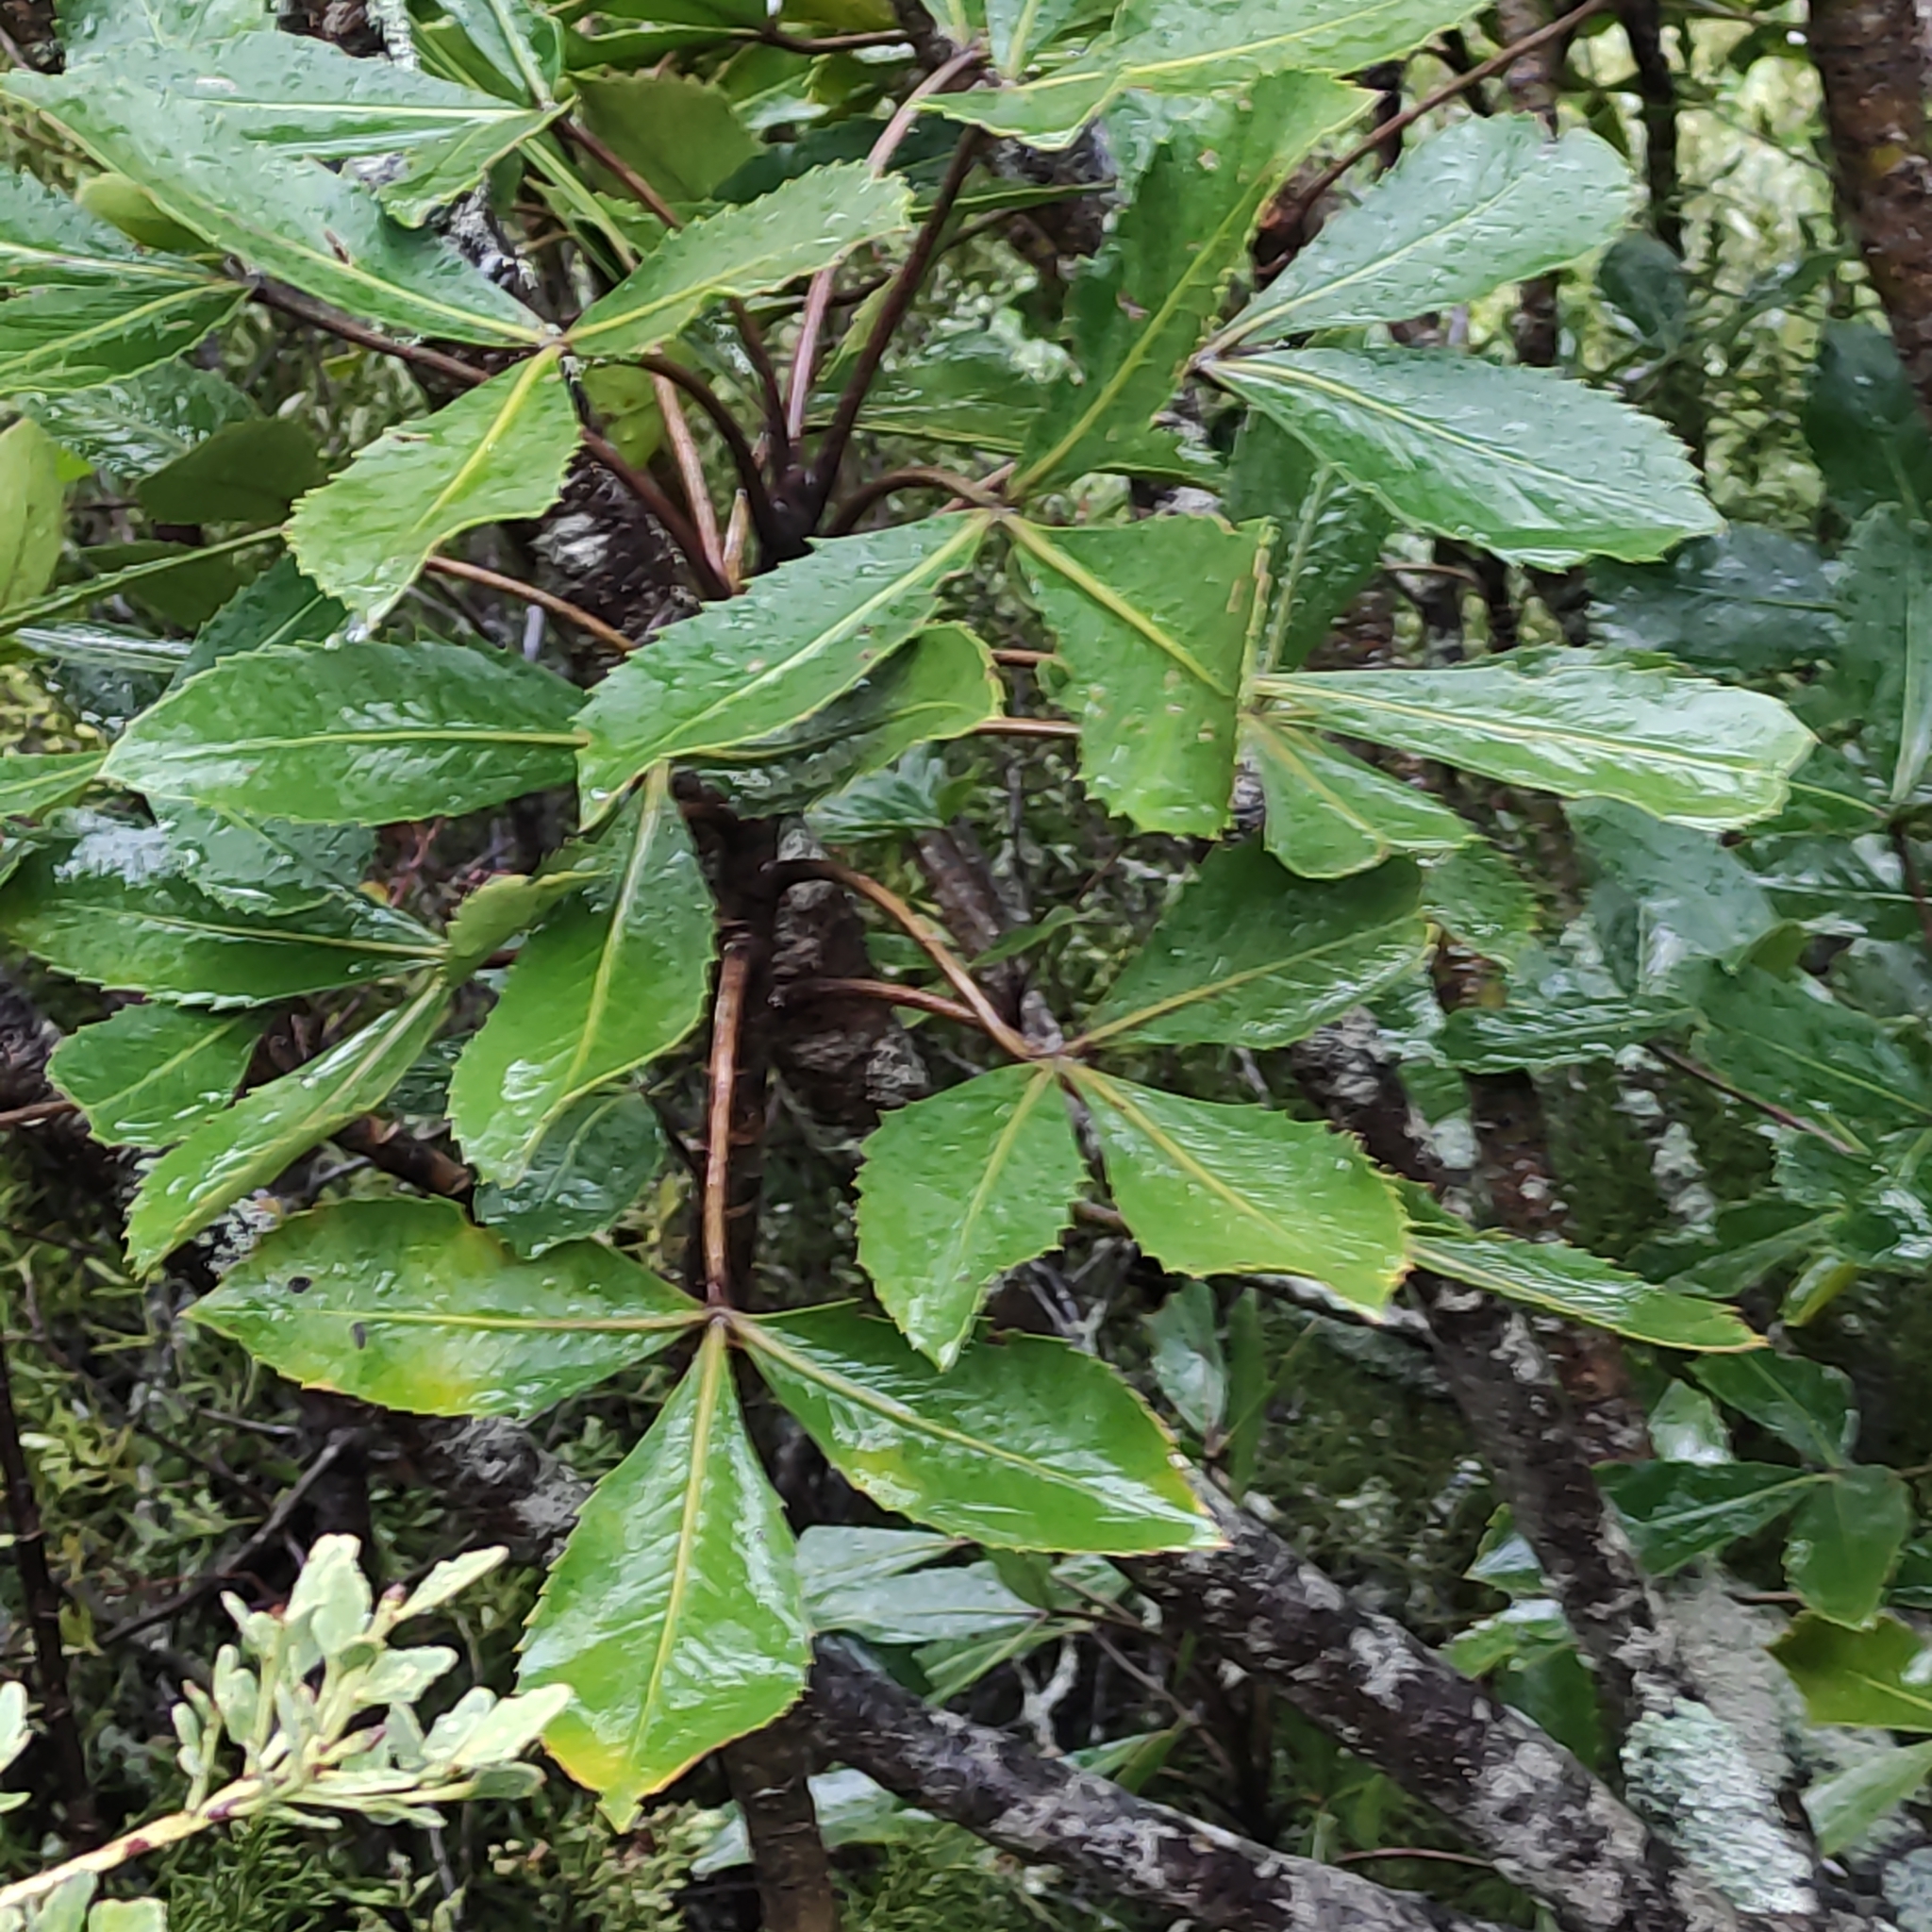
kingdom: Plantae
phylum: Tracheophyta
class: Magnoliopsida
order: Apiales
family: Araliaceae
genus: Neopanax
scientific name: Neopanax colensoi
